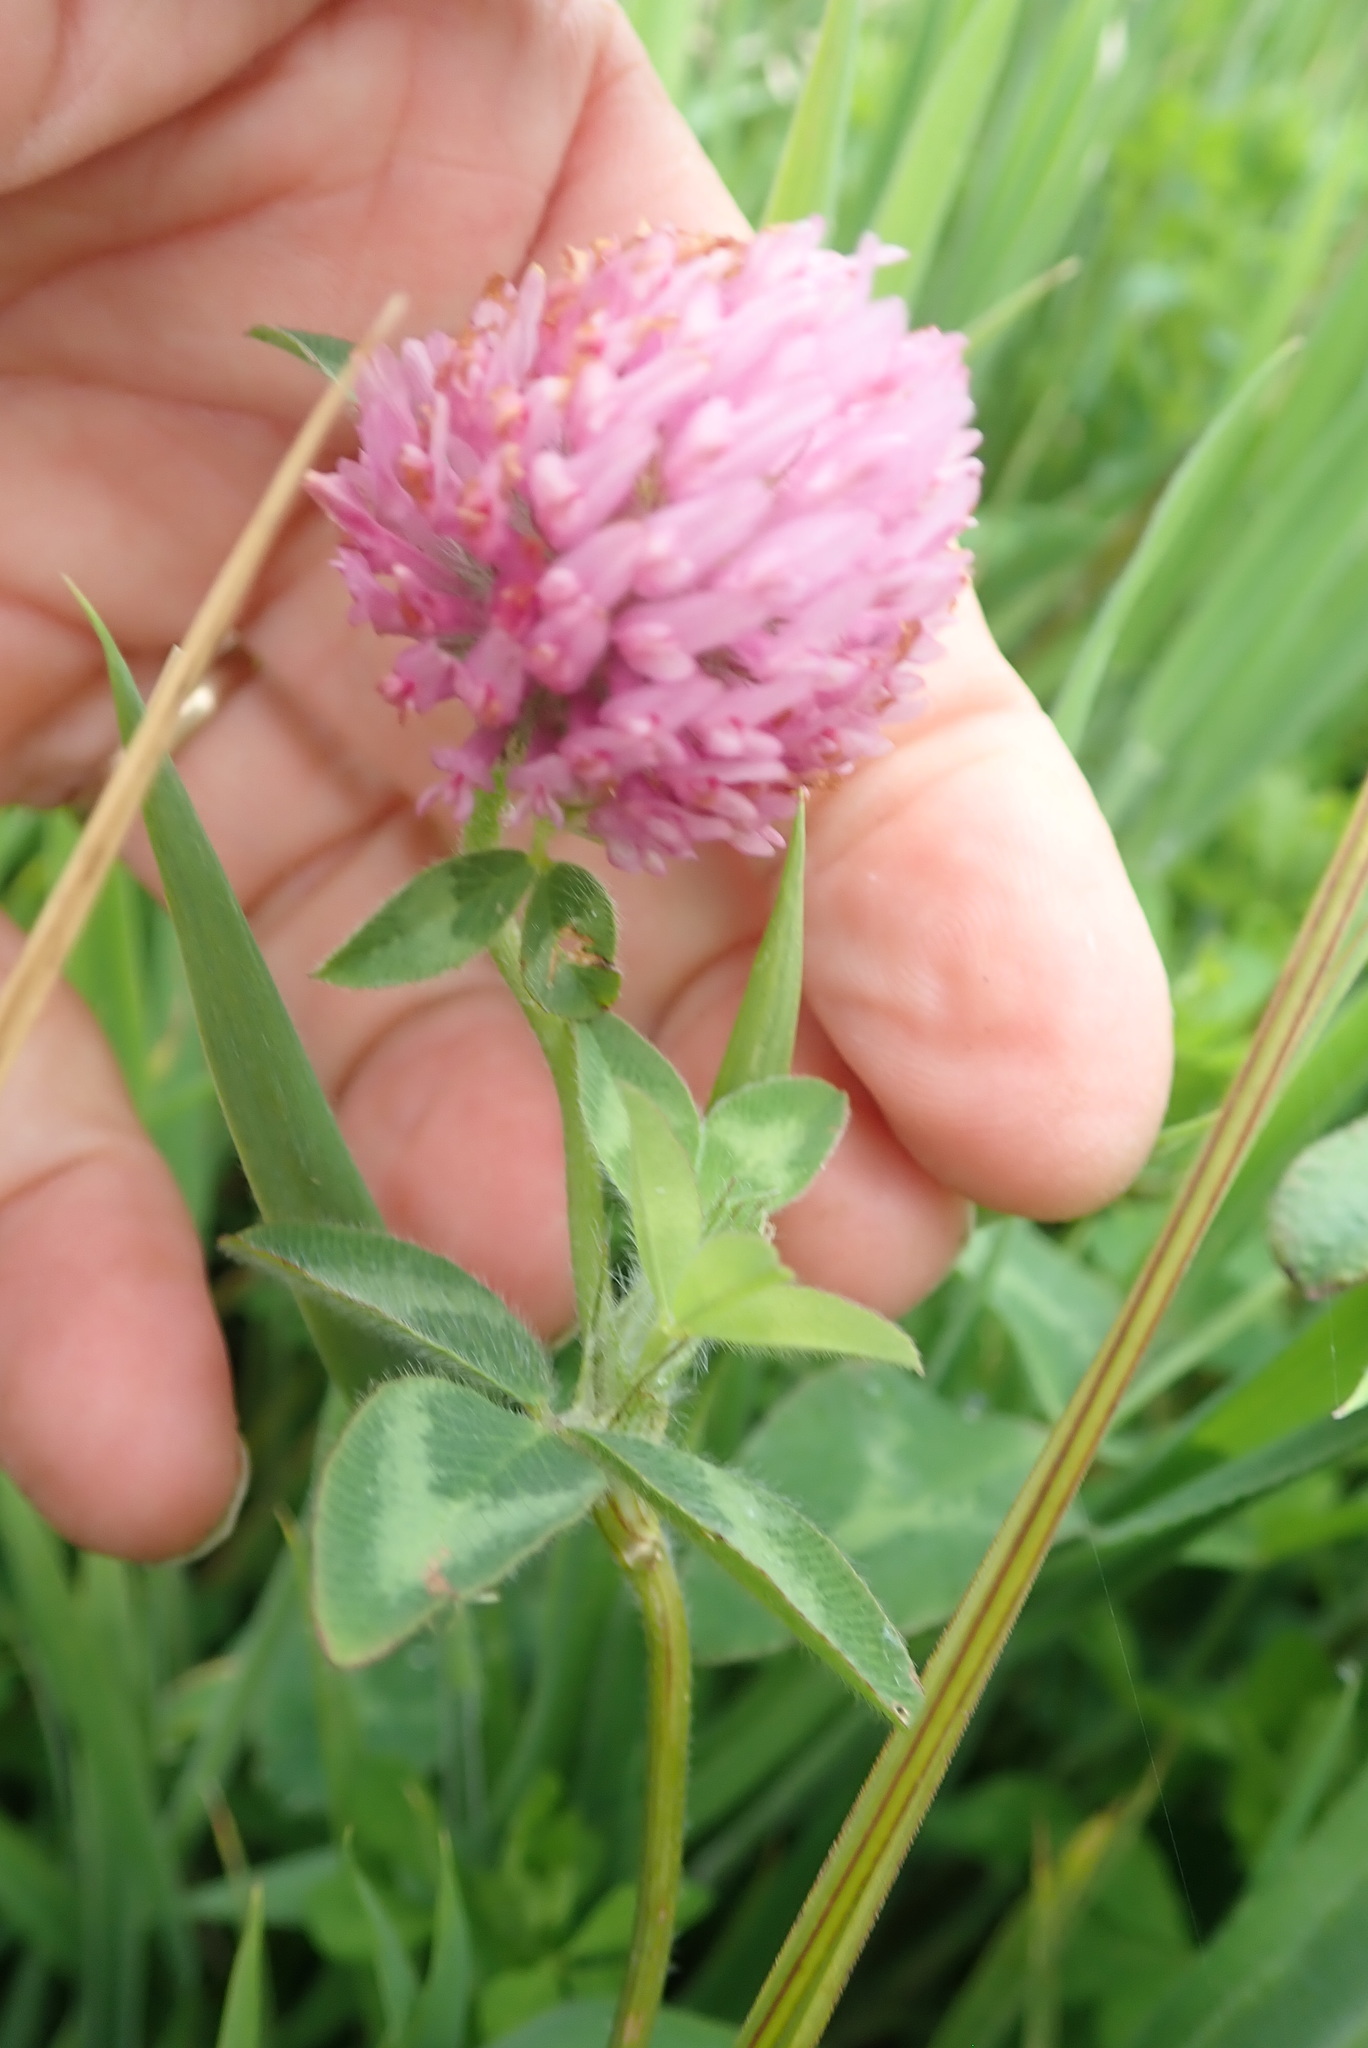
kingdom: Plantae
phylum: Tracheophyta
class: Magnoliopsida
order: Fabales
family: Fabaceae
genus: Trifolium
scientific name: Trifolium pratense
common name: Red clover
